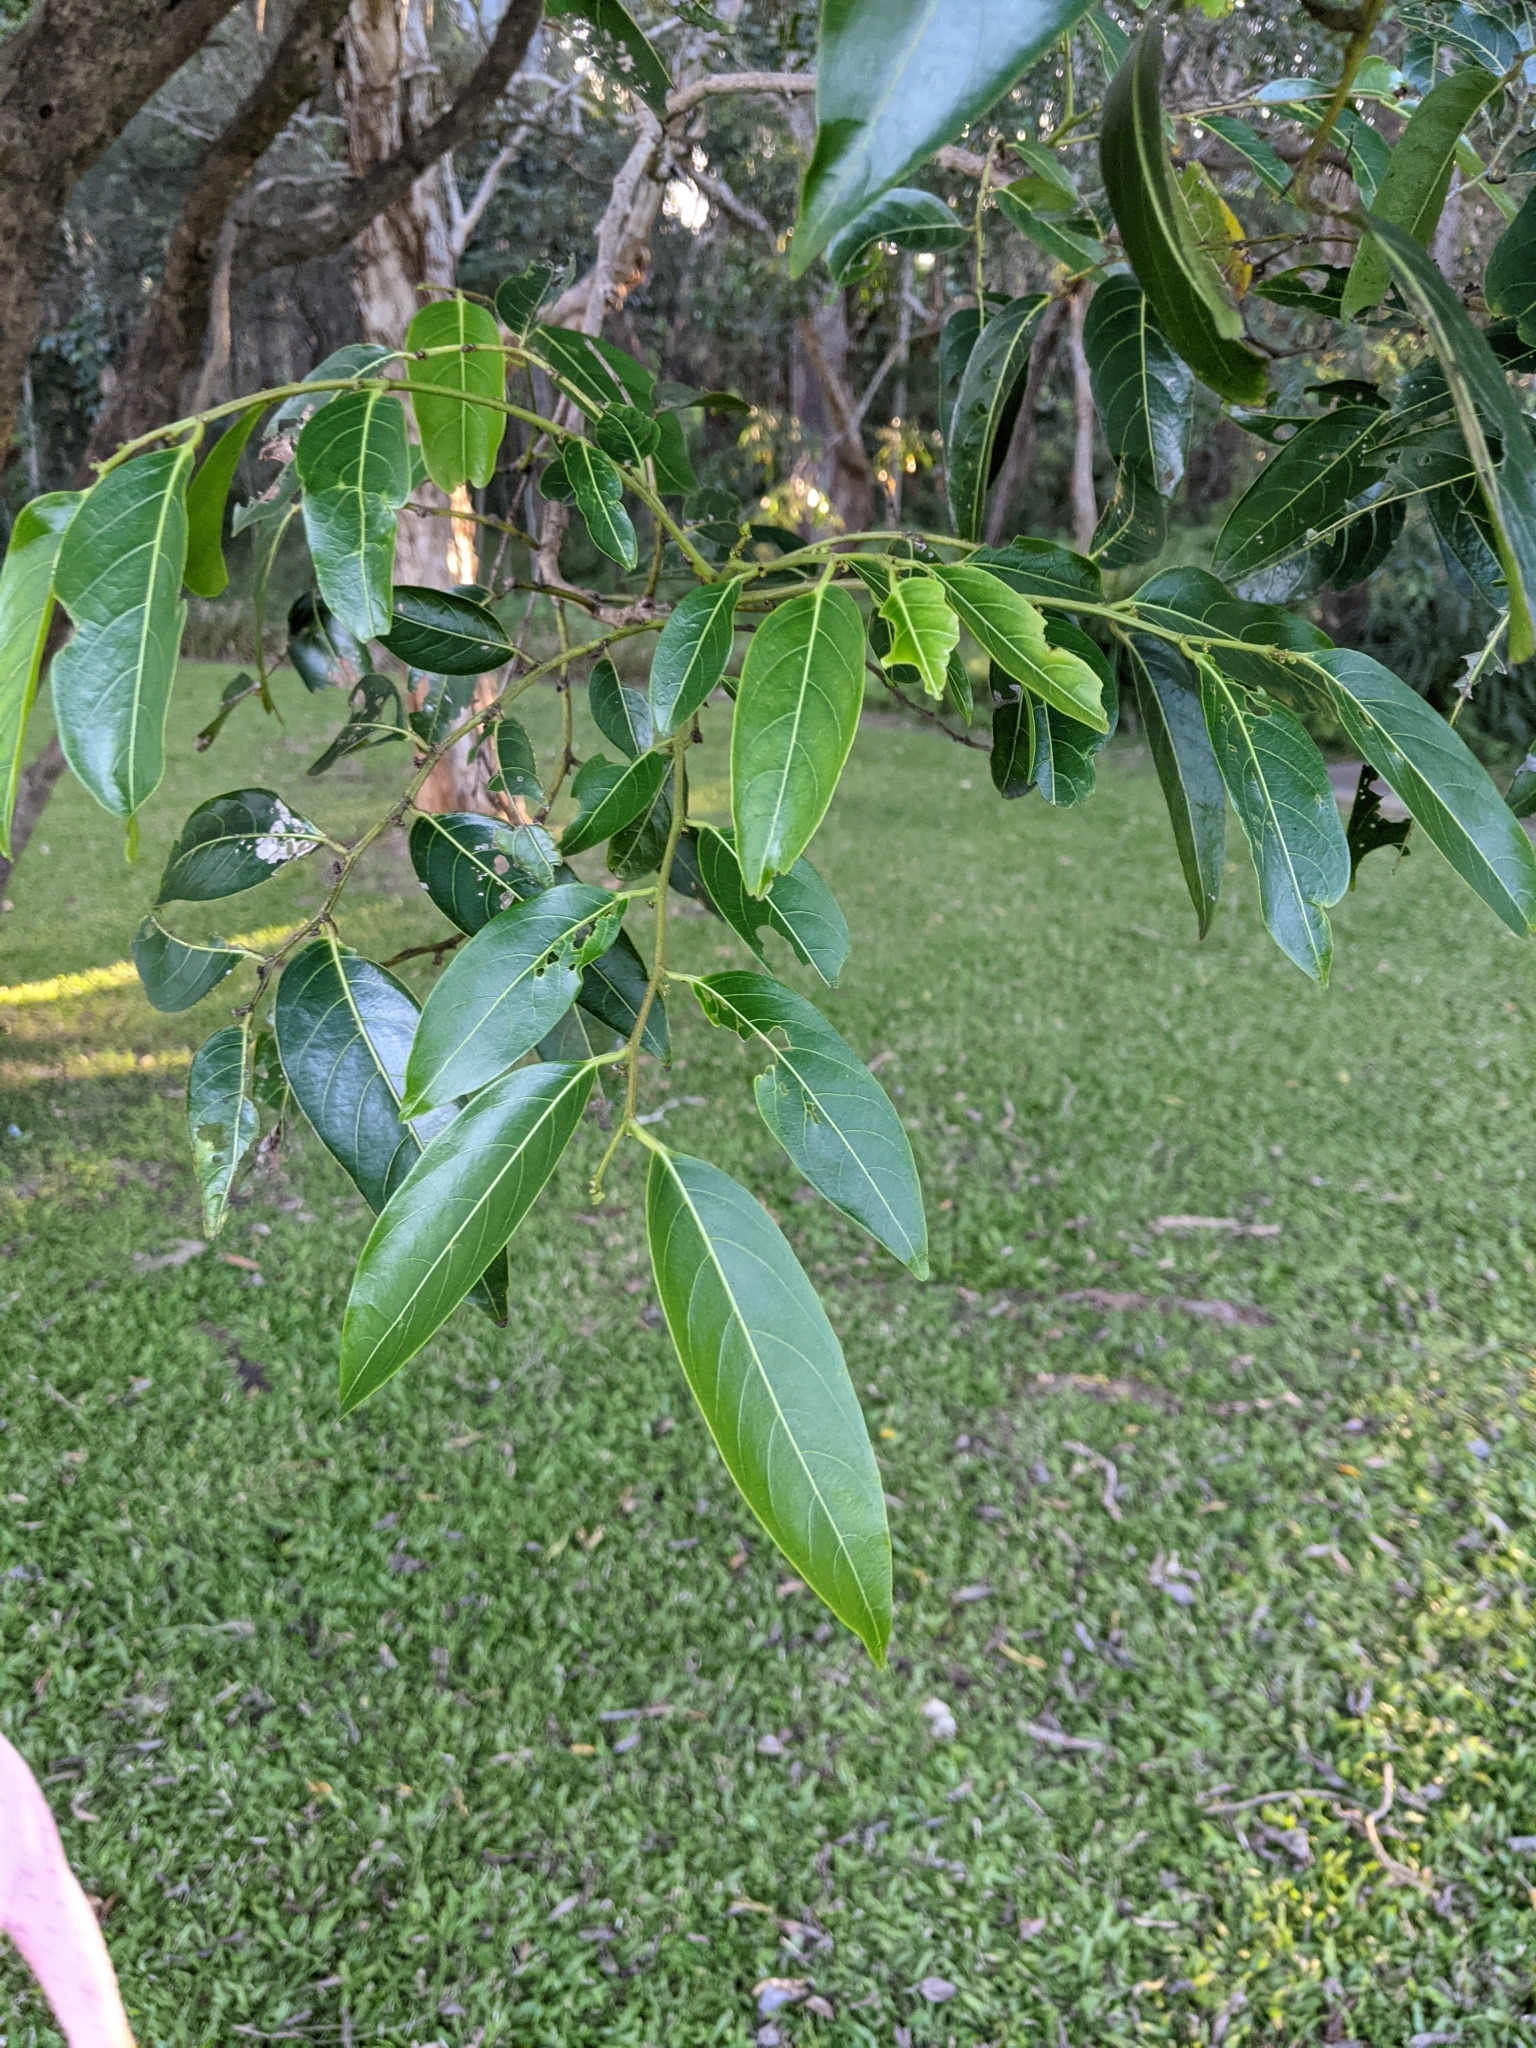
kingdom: Plantae
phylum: Tracheophyta
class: Magnoliopsida
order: Malpighiales
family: Phyllanthaceae
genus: Glochidion
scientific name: Glochidion zeylanicum
